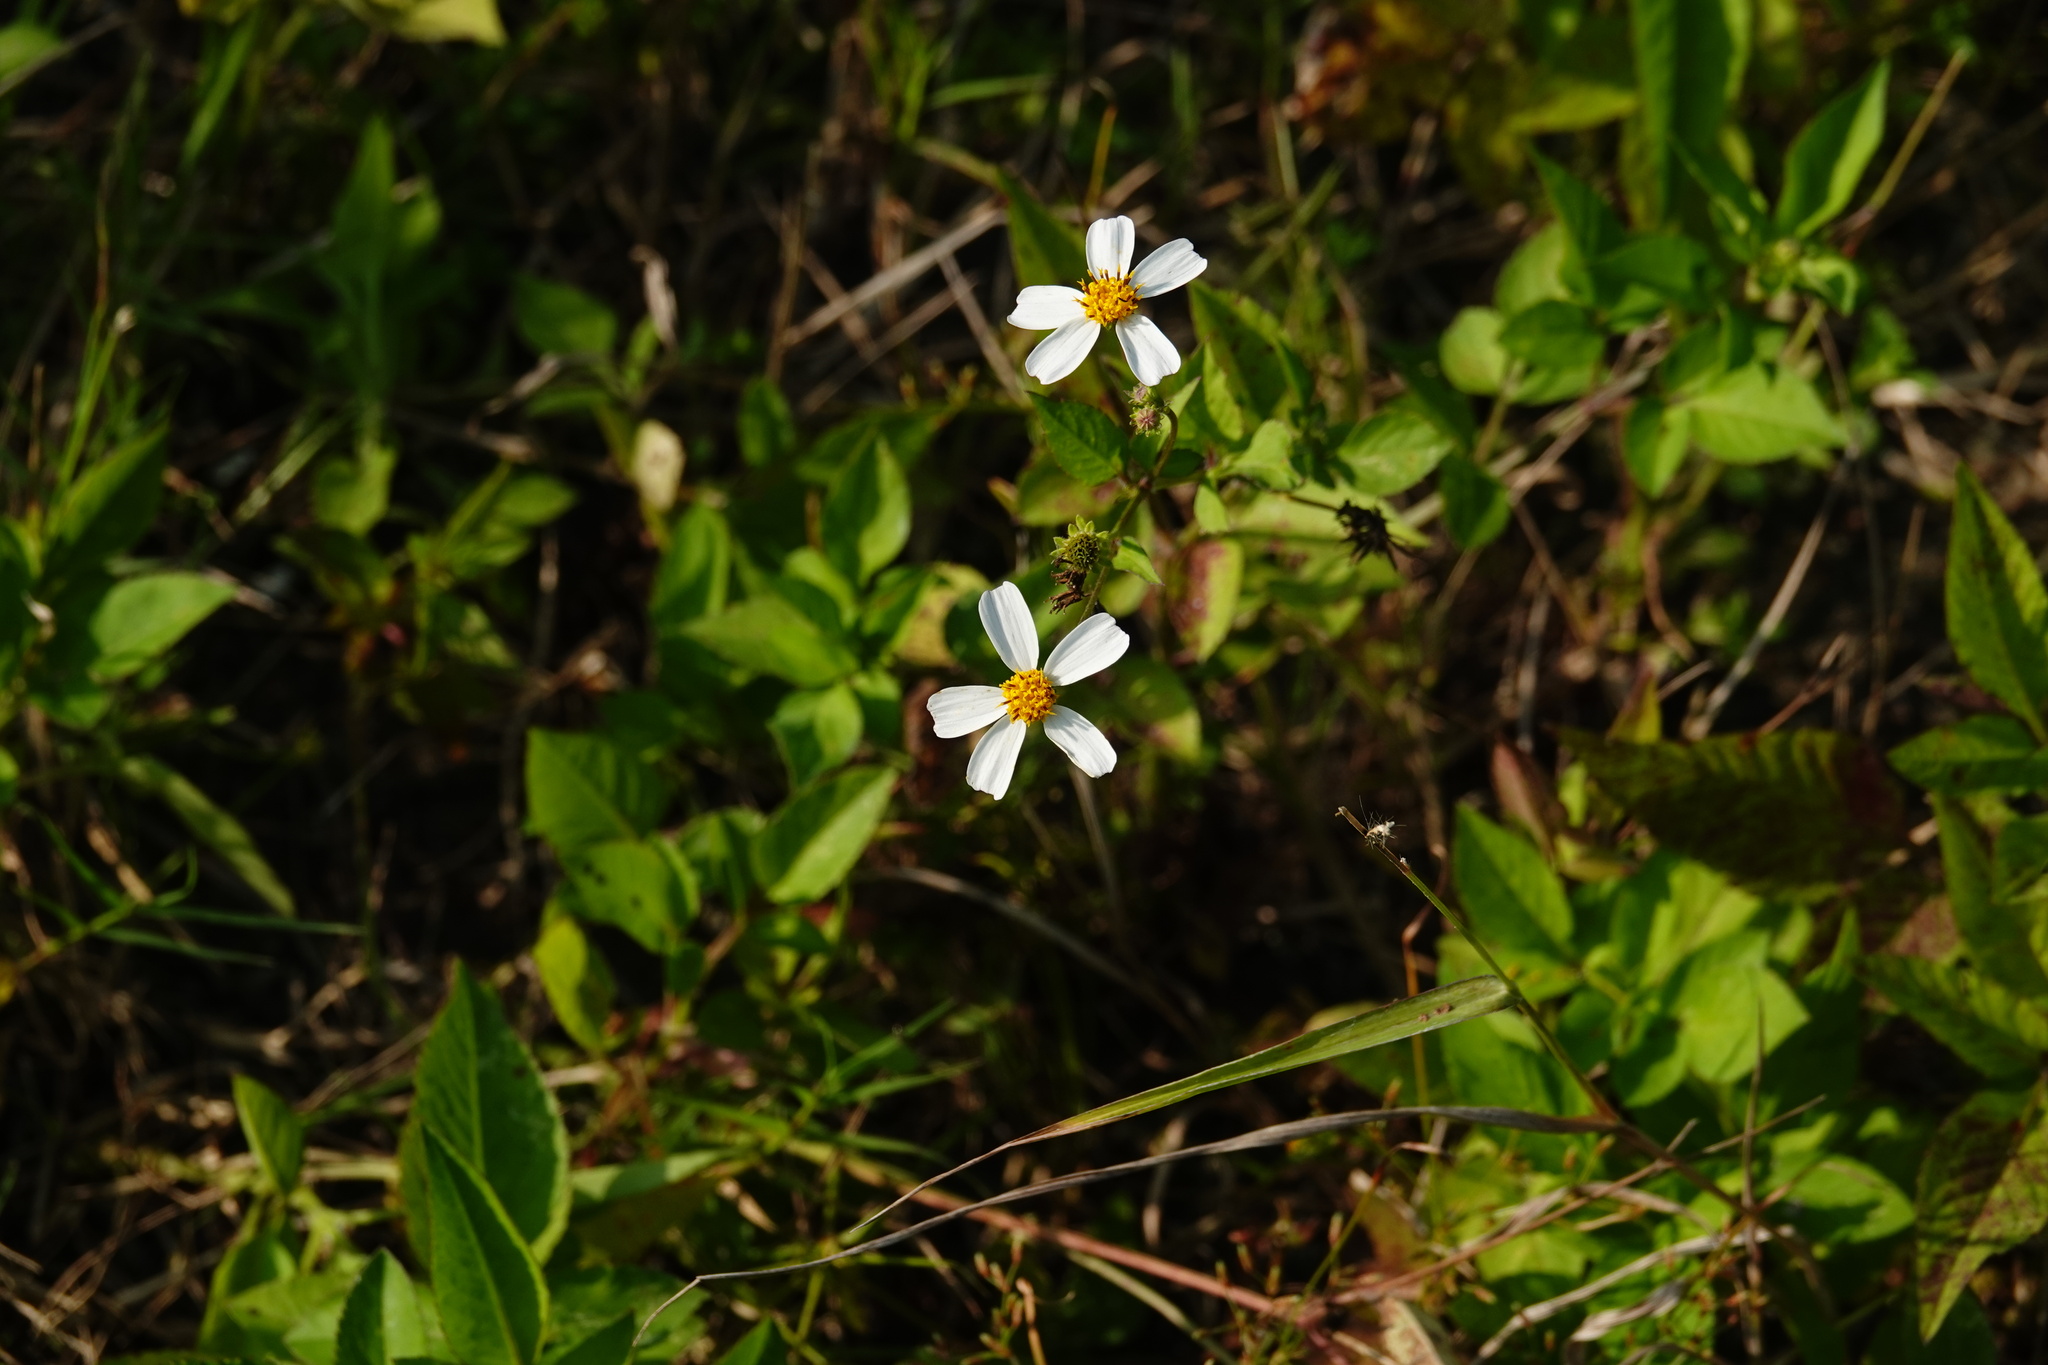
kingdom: Plantae
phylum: Tracheophyta
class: Magnoliopsida
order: Asterales
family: Asteraceae
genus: Bidens
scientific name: Bidens alba
